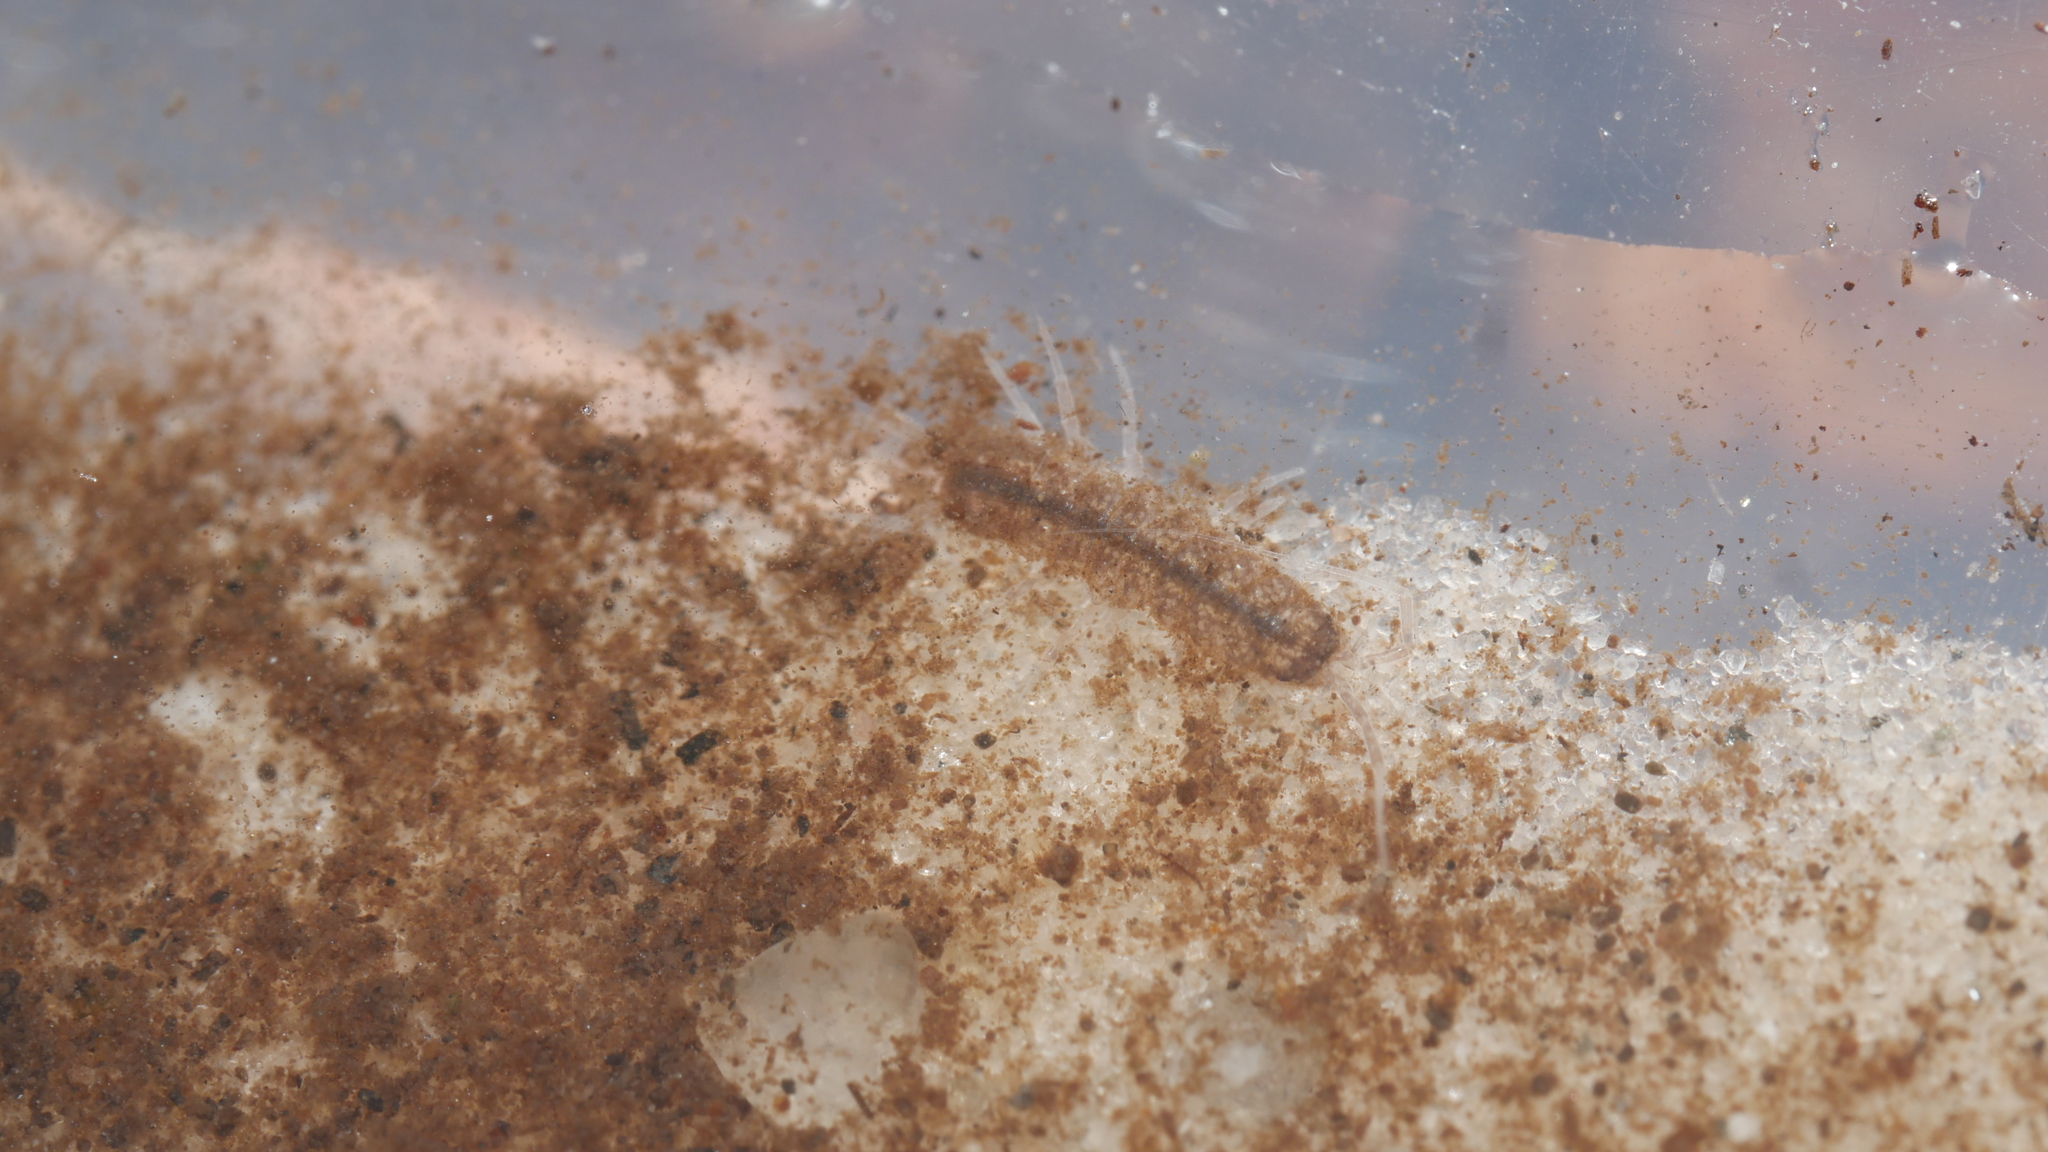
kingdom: Animalia
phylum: Arthropoda
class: Malacostraca
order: Isopoda
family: Asellidae
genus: Caecidotea
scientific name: Caecidotea nodula
